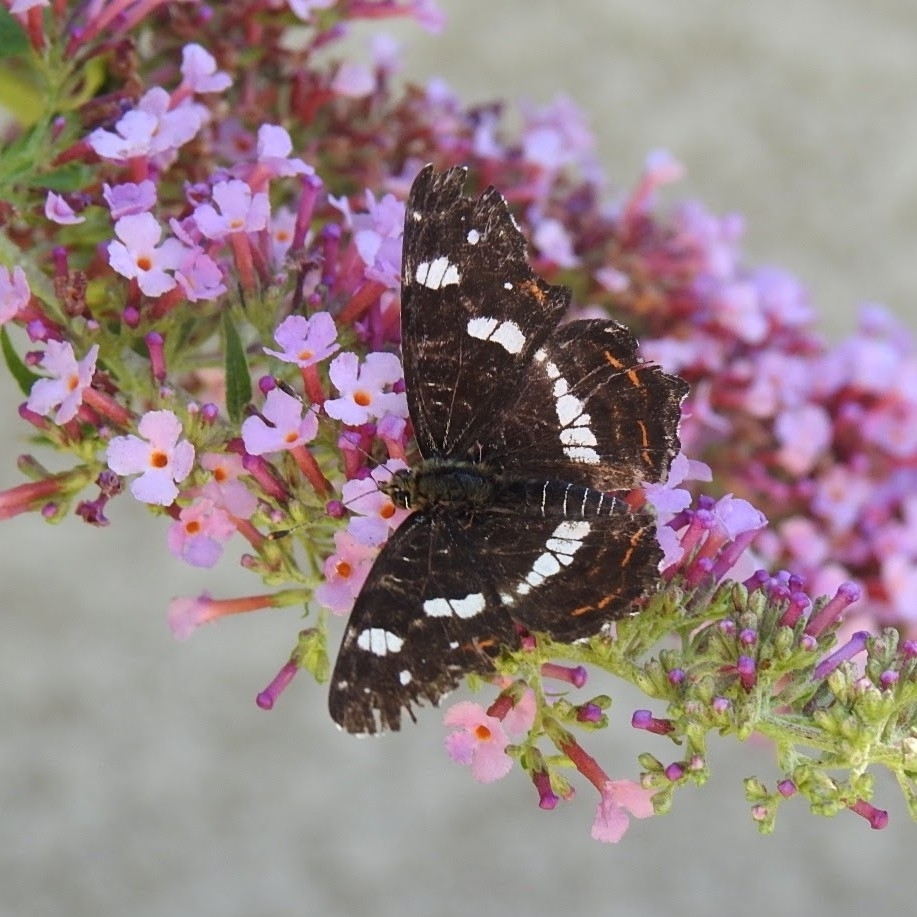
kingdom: Animalia
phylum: Arthropoda
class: Insecta
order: Lepidoptera
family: Nymphalidae
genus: Araschnia
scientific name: Araschnia levana
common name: Map butterfly
